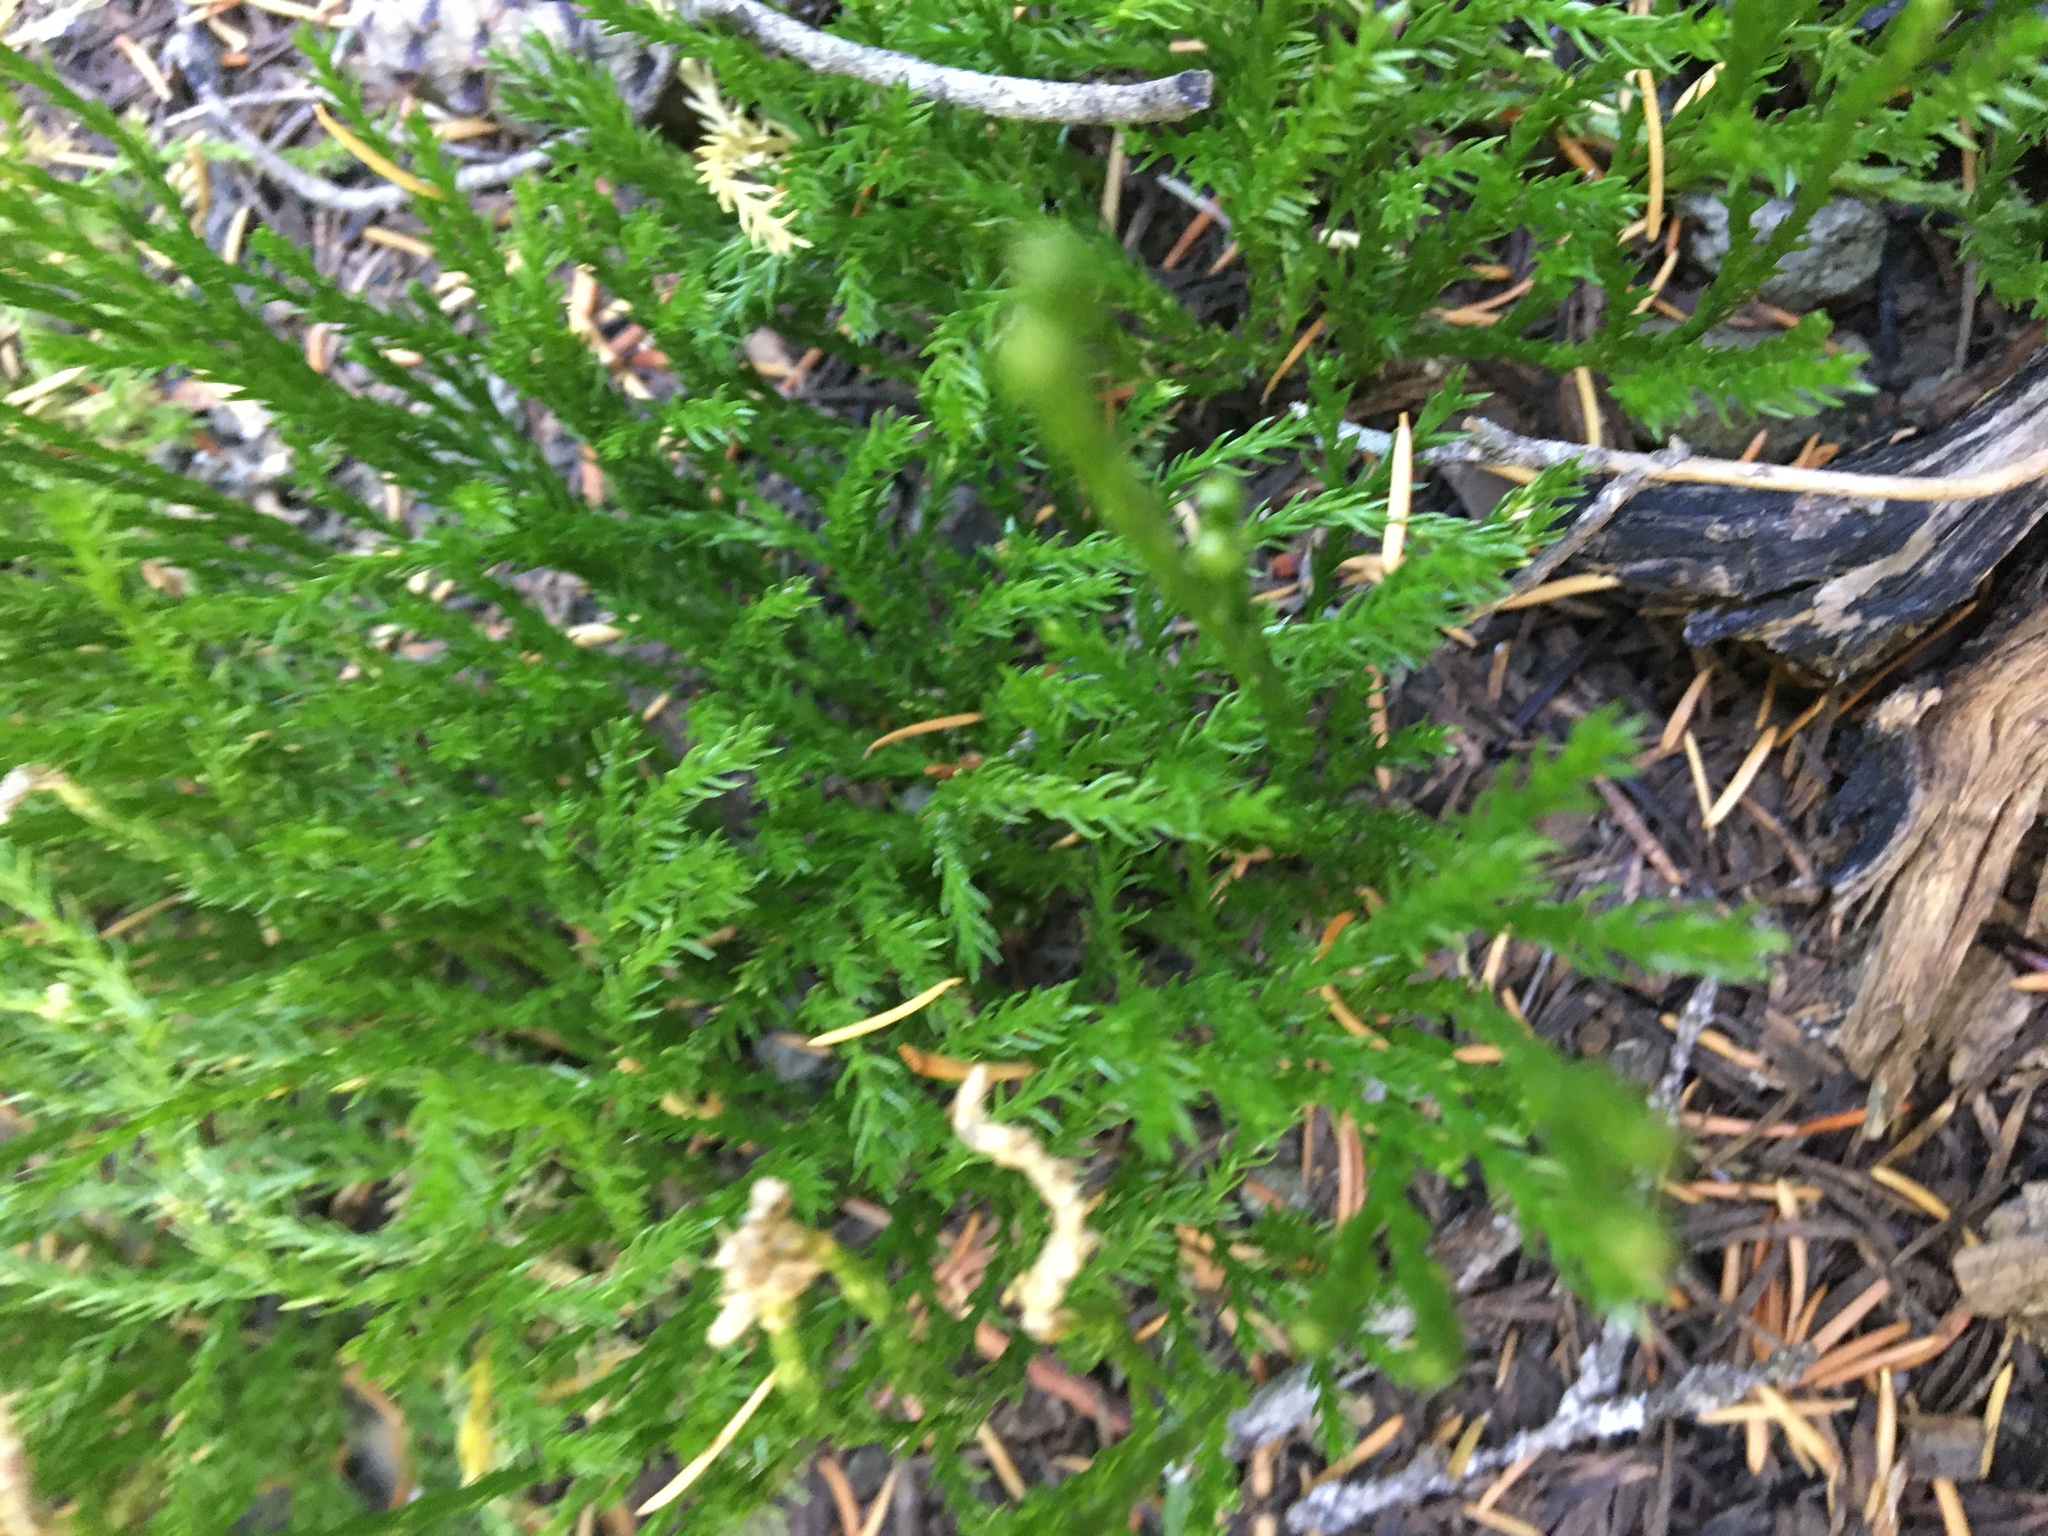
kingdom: Plantae
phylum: Tracheophyta
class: Lycopodiopsida
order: Lycopodiales
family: Lycopodiaceae
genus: Diphasiastrum
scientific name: Diphasiastrum sitchense
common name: Alaska clubmoss
